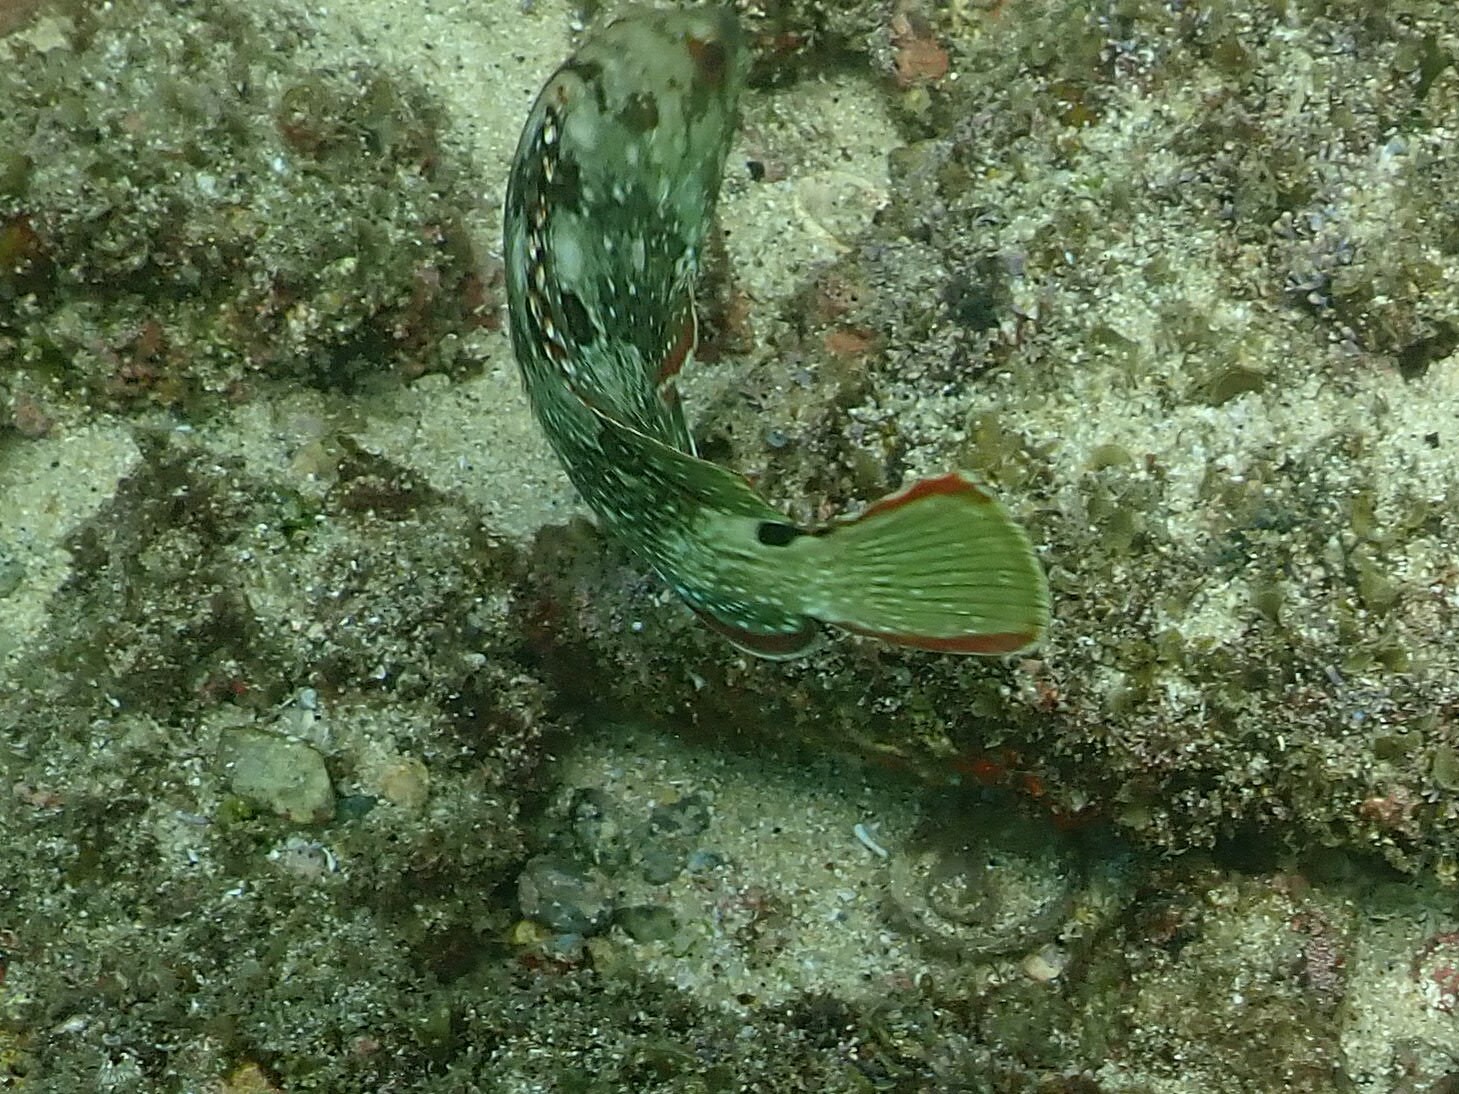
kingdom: Animalia
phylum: Chordata
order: Perciformes
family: Serranidae
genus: Epinephelus
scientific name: Epinephelus labriformis
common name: Flag cabrilla
